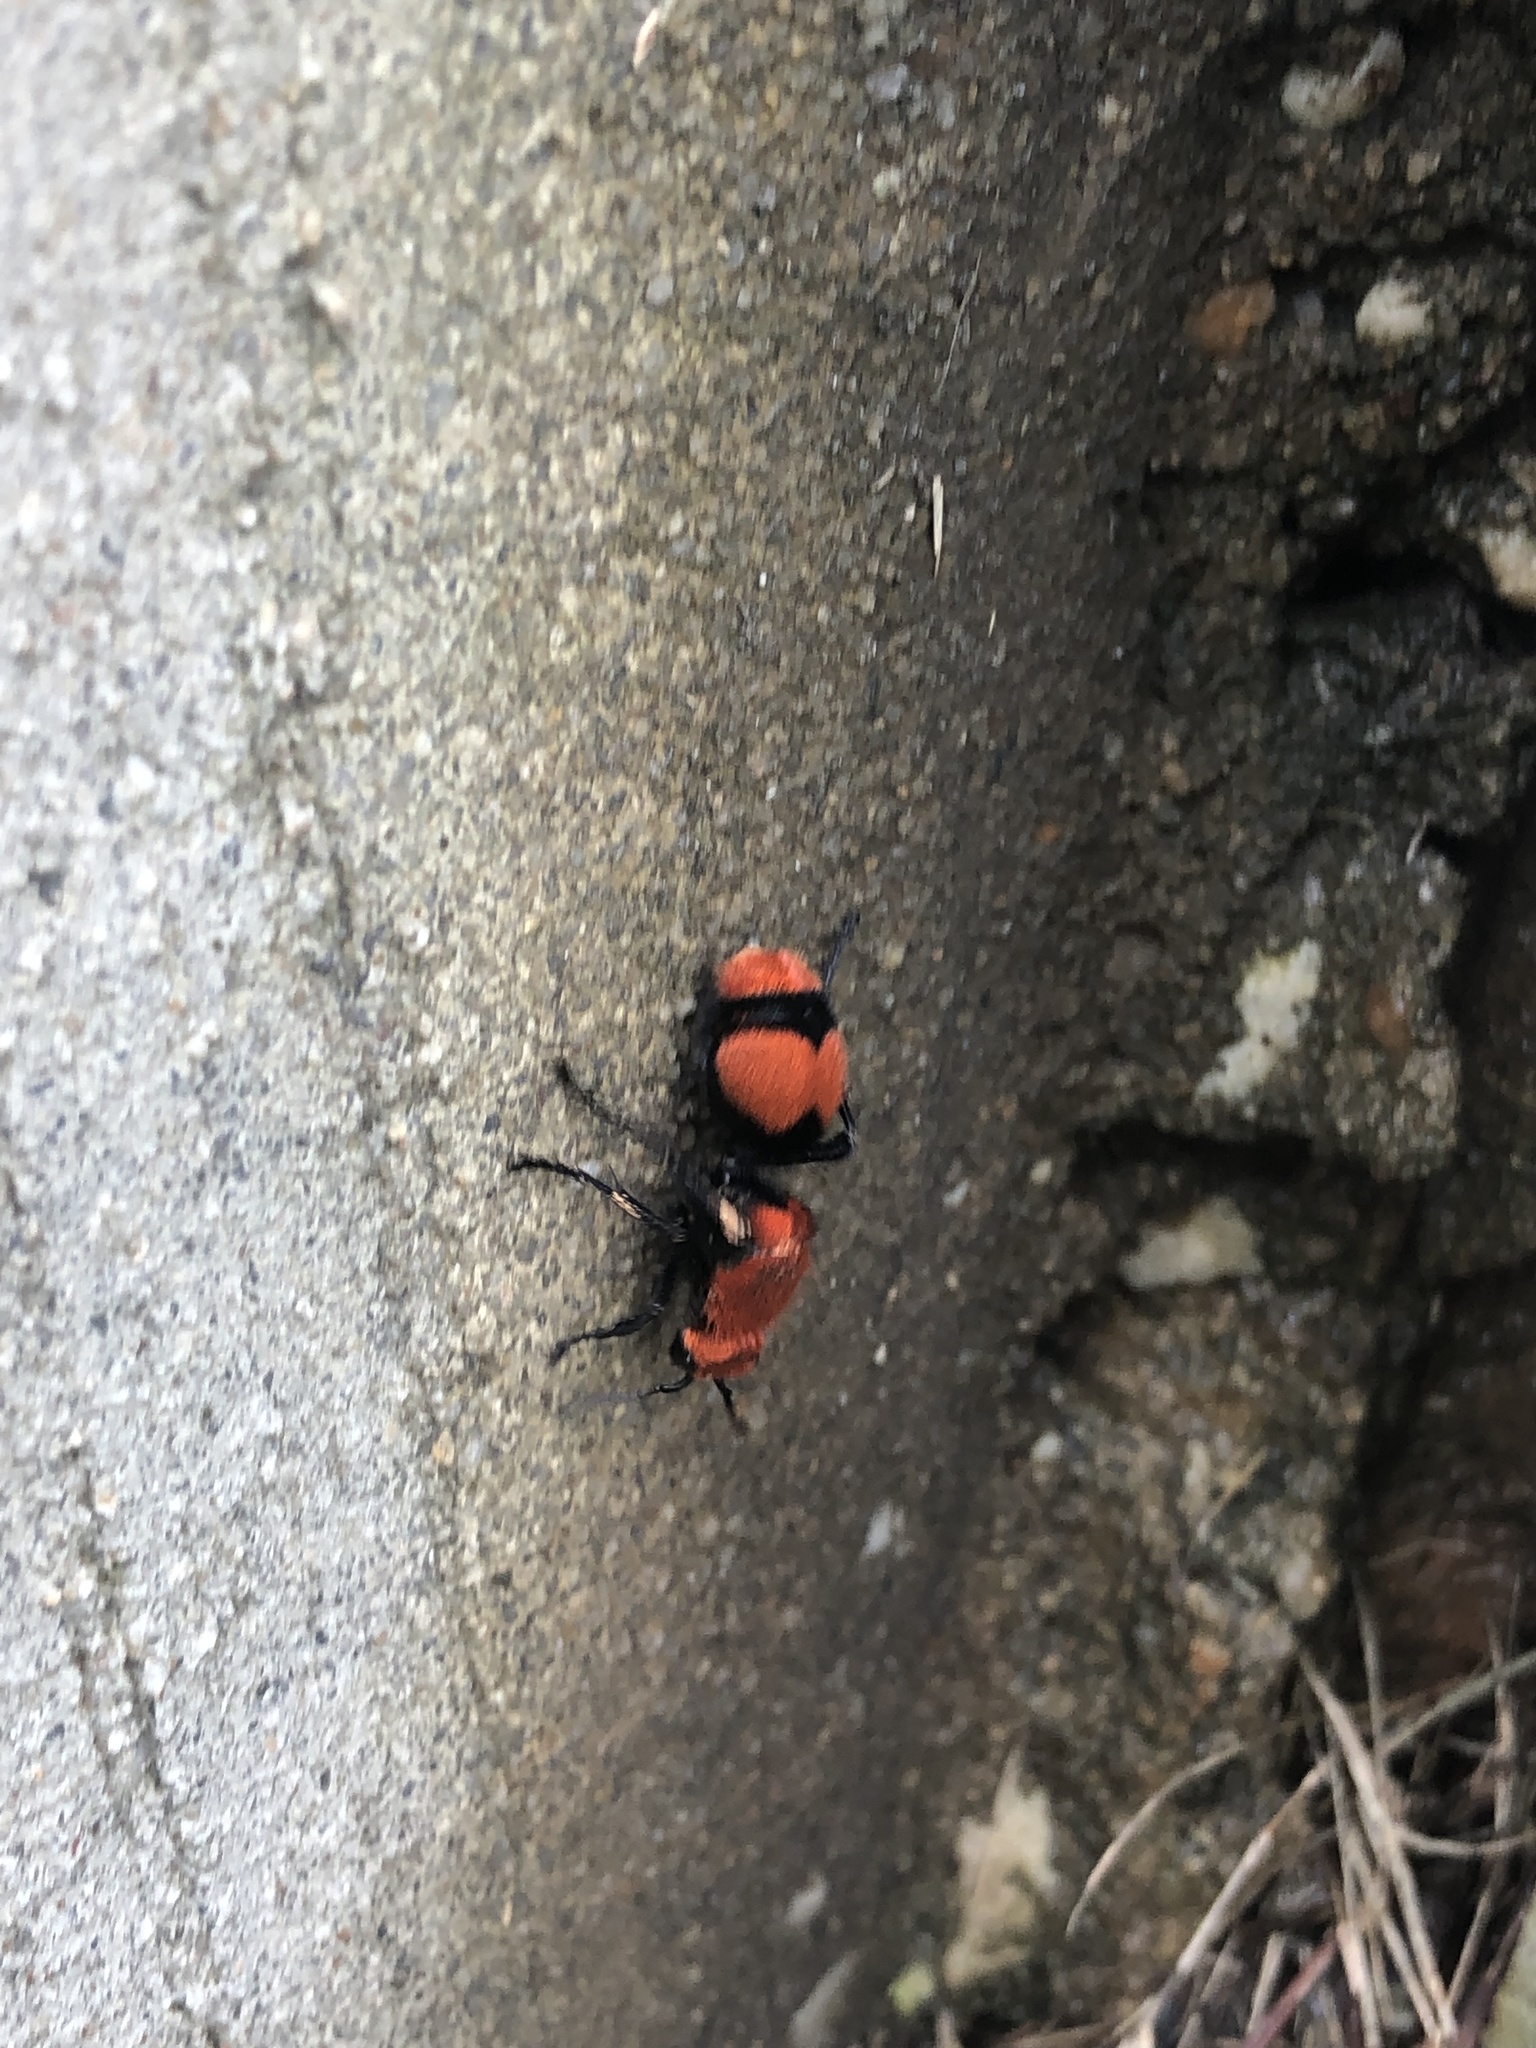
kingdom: Animalia
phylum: Arthropoda
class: Insecta
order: Hymenoptera
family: Mutillidae
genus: Dasymutilla
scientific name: Dasymutilla occidentalis
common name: Common eastern velvet ant
